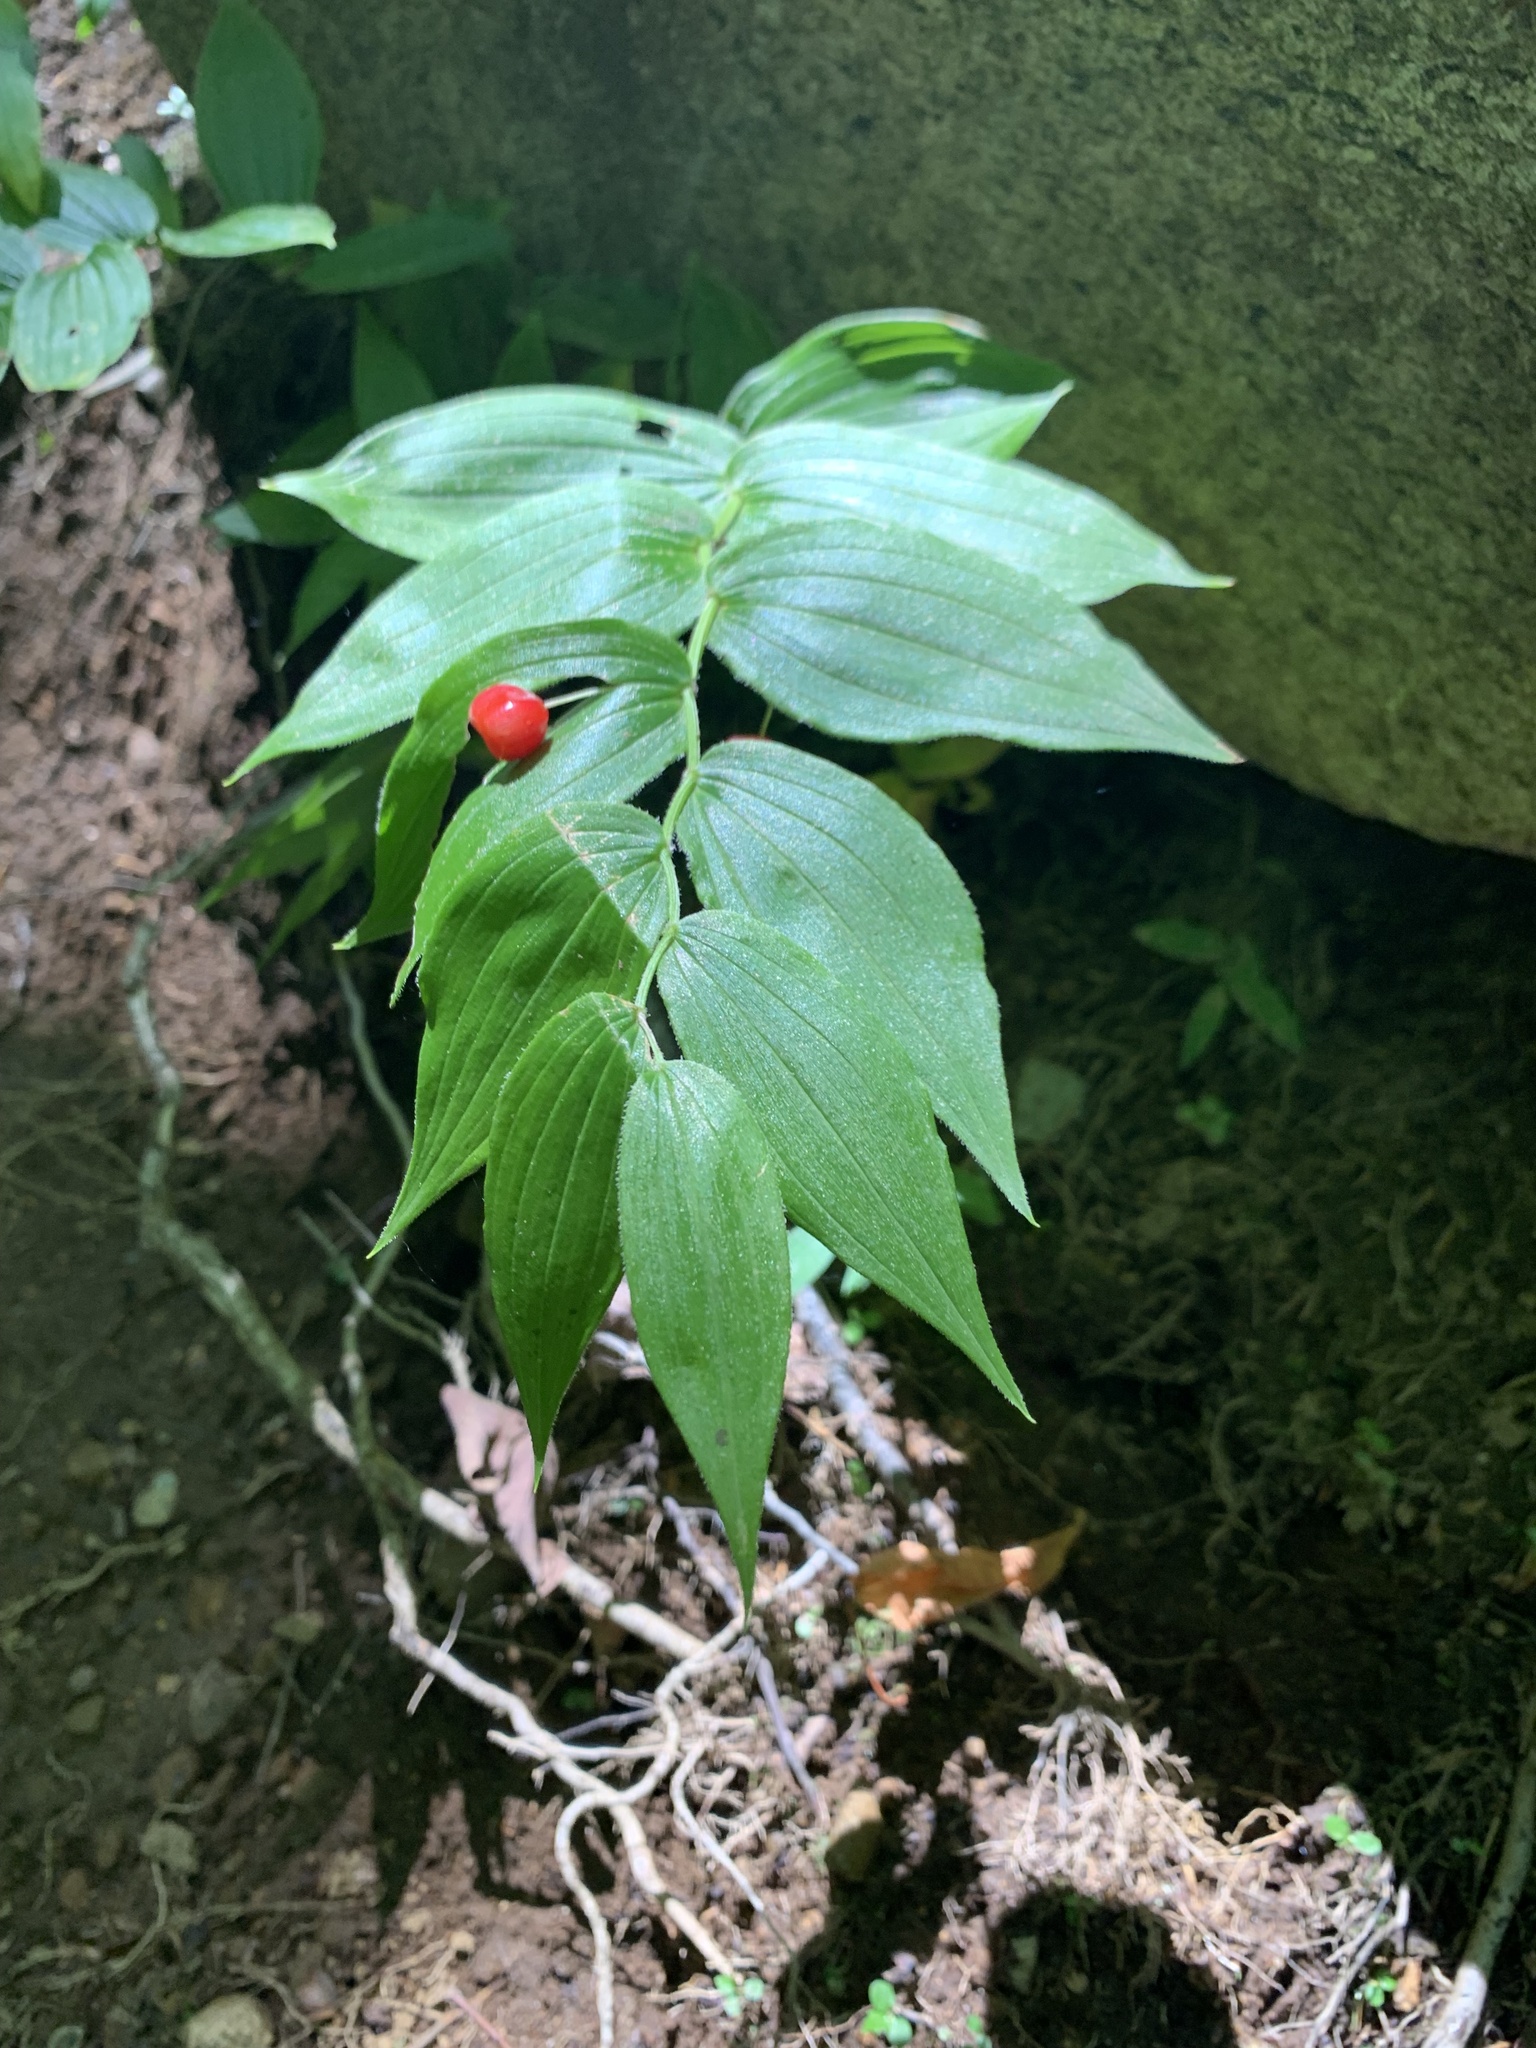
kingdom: Plantae
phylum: Tracheophyta
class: Liliopsida
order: Liliales
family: Liliaceae
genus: Streptopus
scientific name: Streptopus lanceolatus
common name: Rose mandarin
